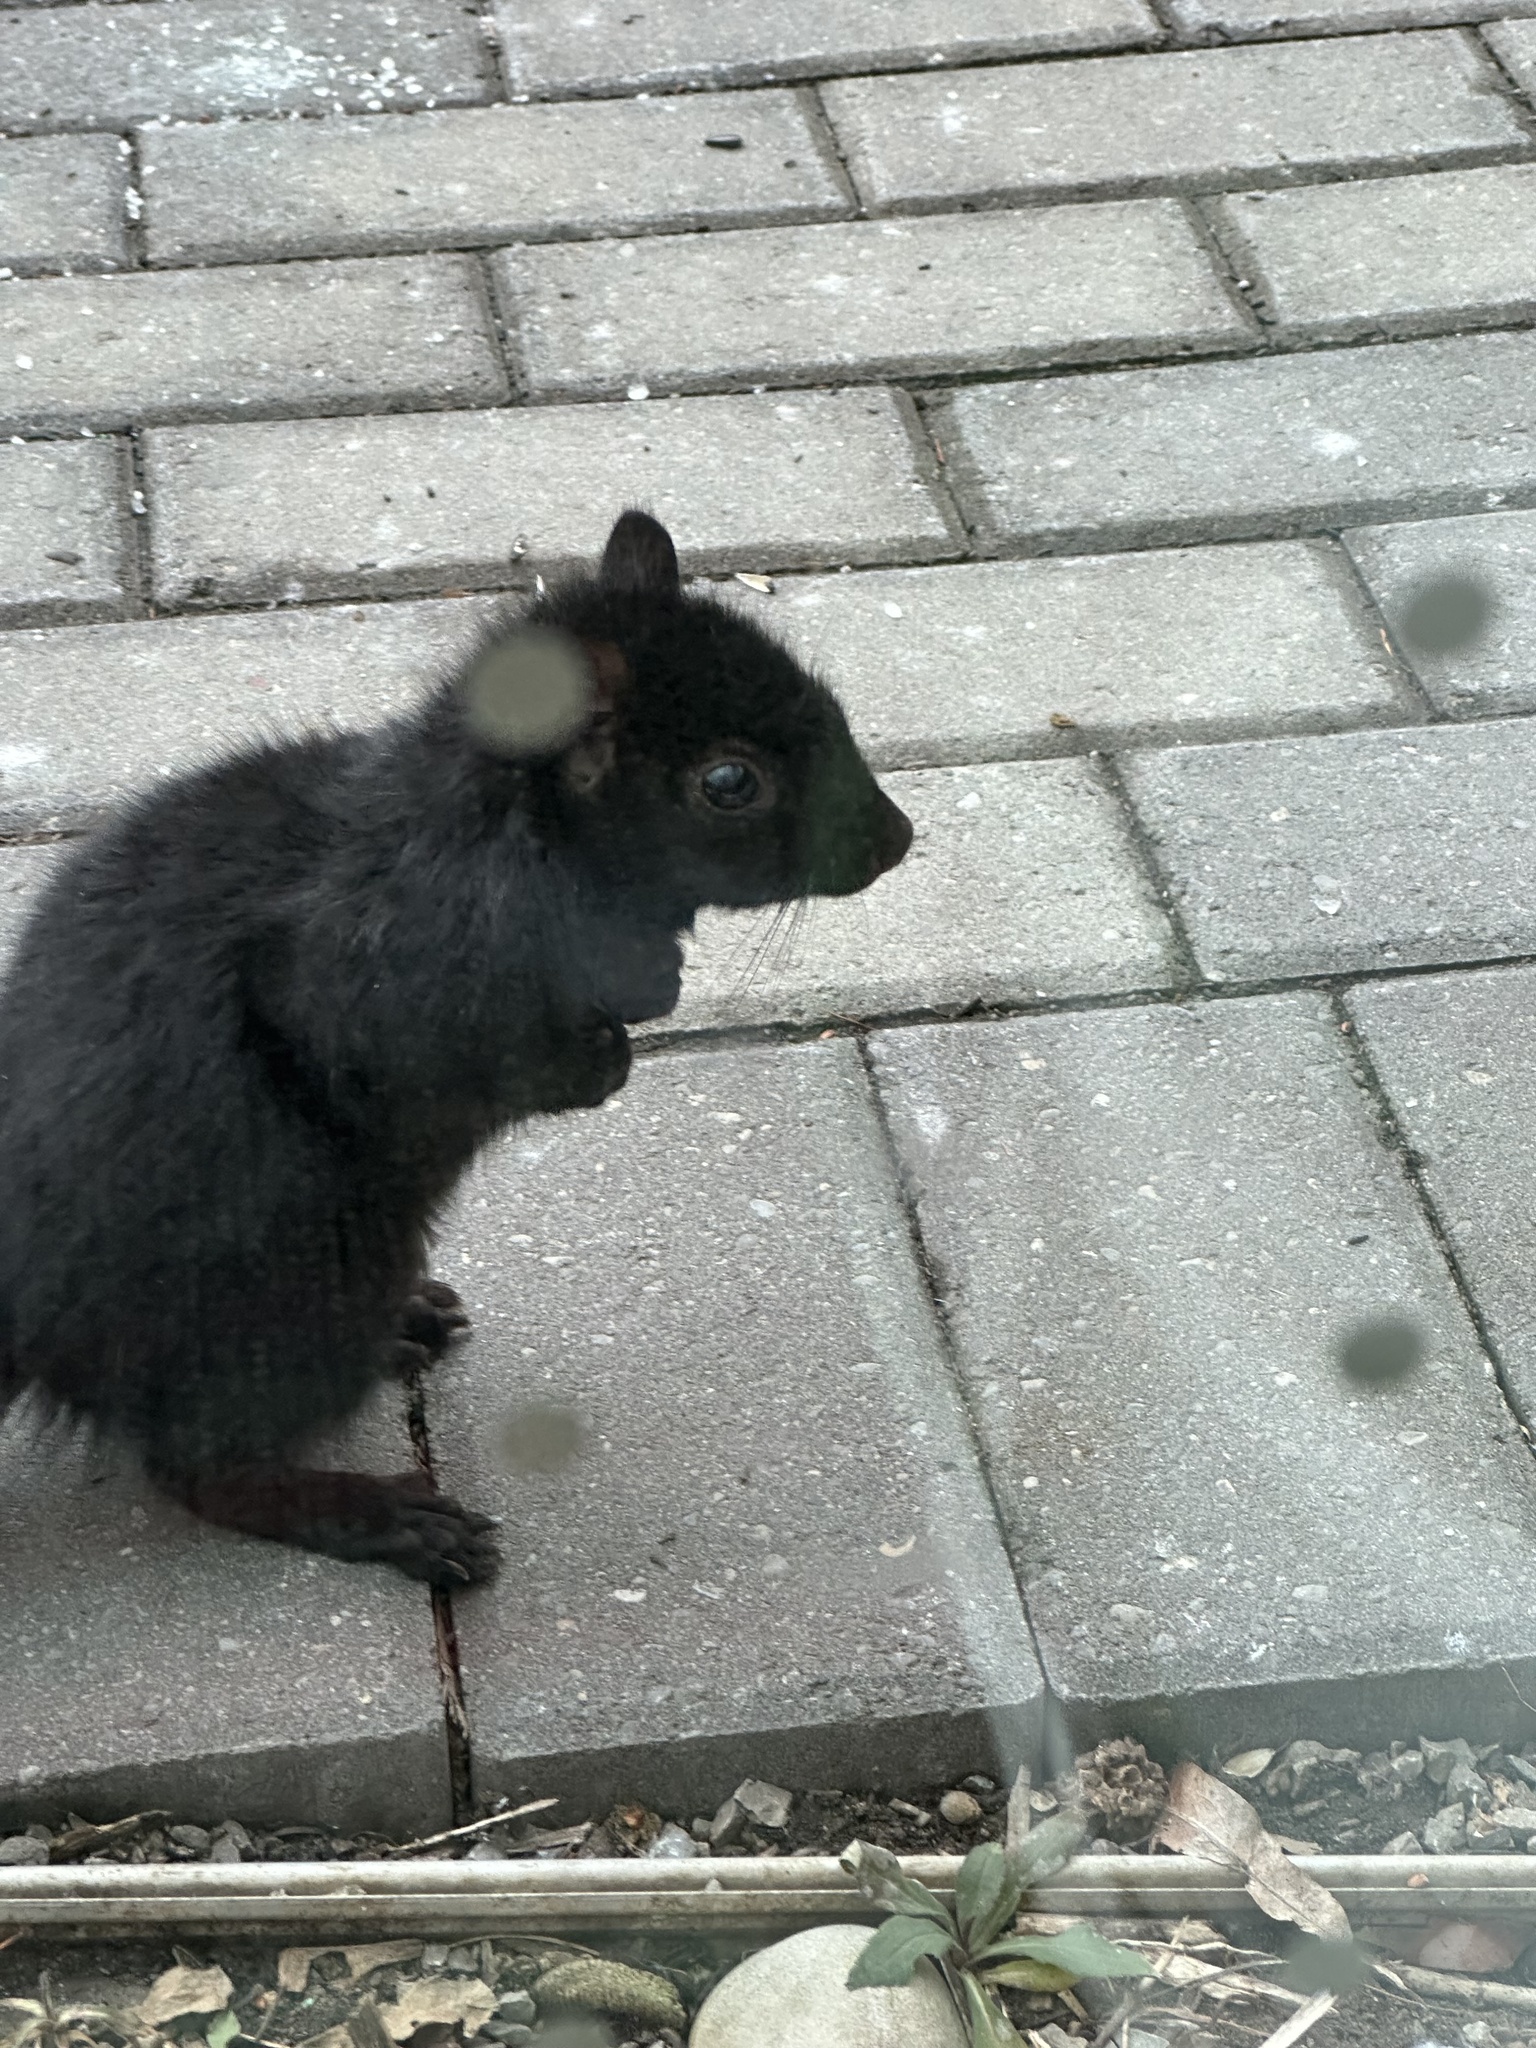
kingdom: Animalia
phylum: Chordata
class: Mammalia
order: Rodentia
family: Sciuridae
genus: Sciurus
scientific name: Sciurus carolinensis
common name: Eastern gray squirrel
